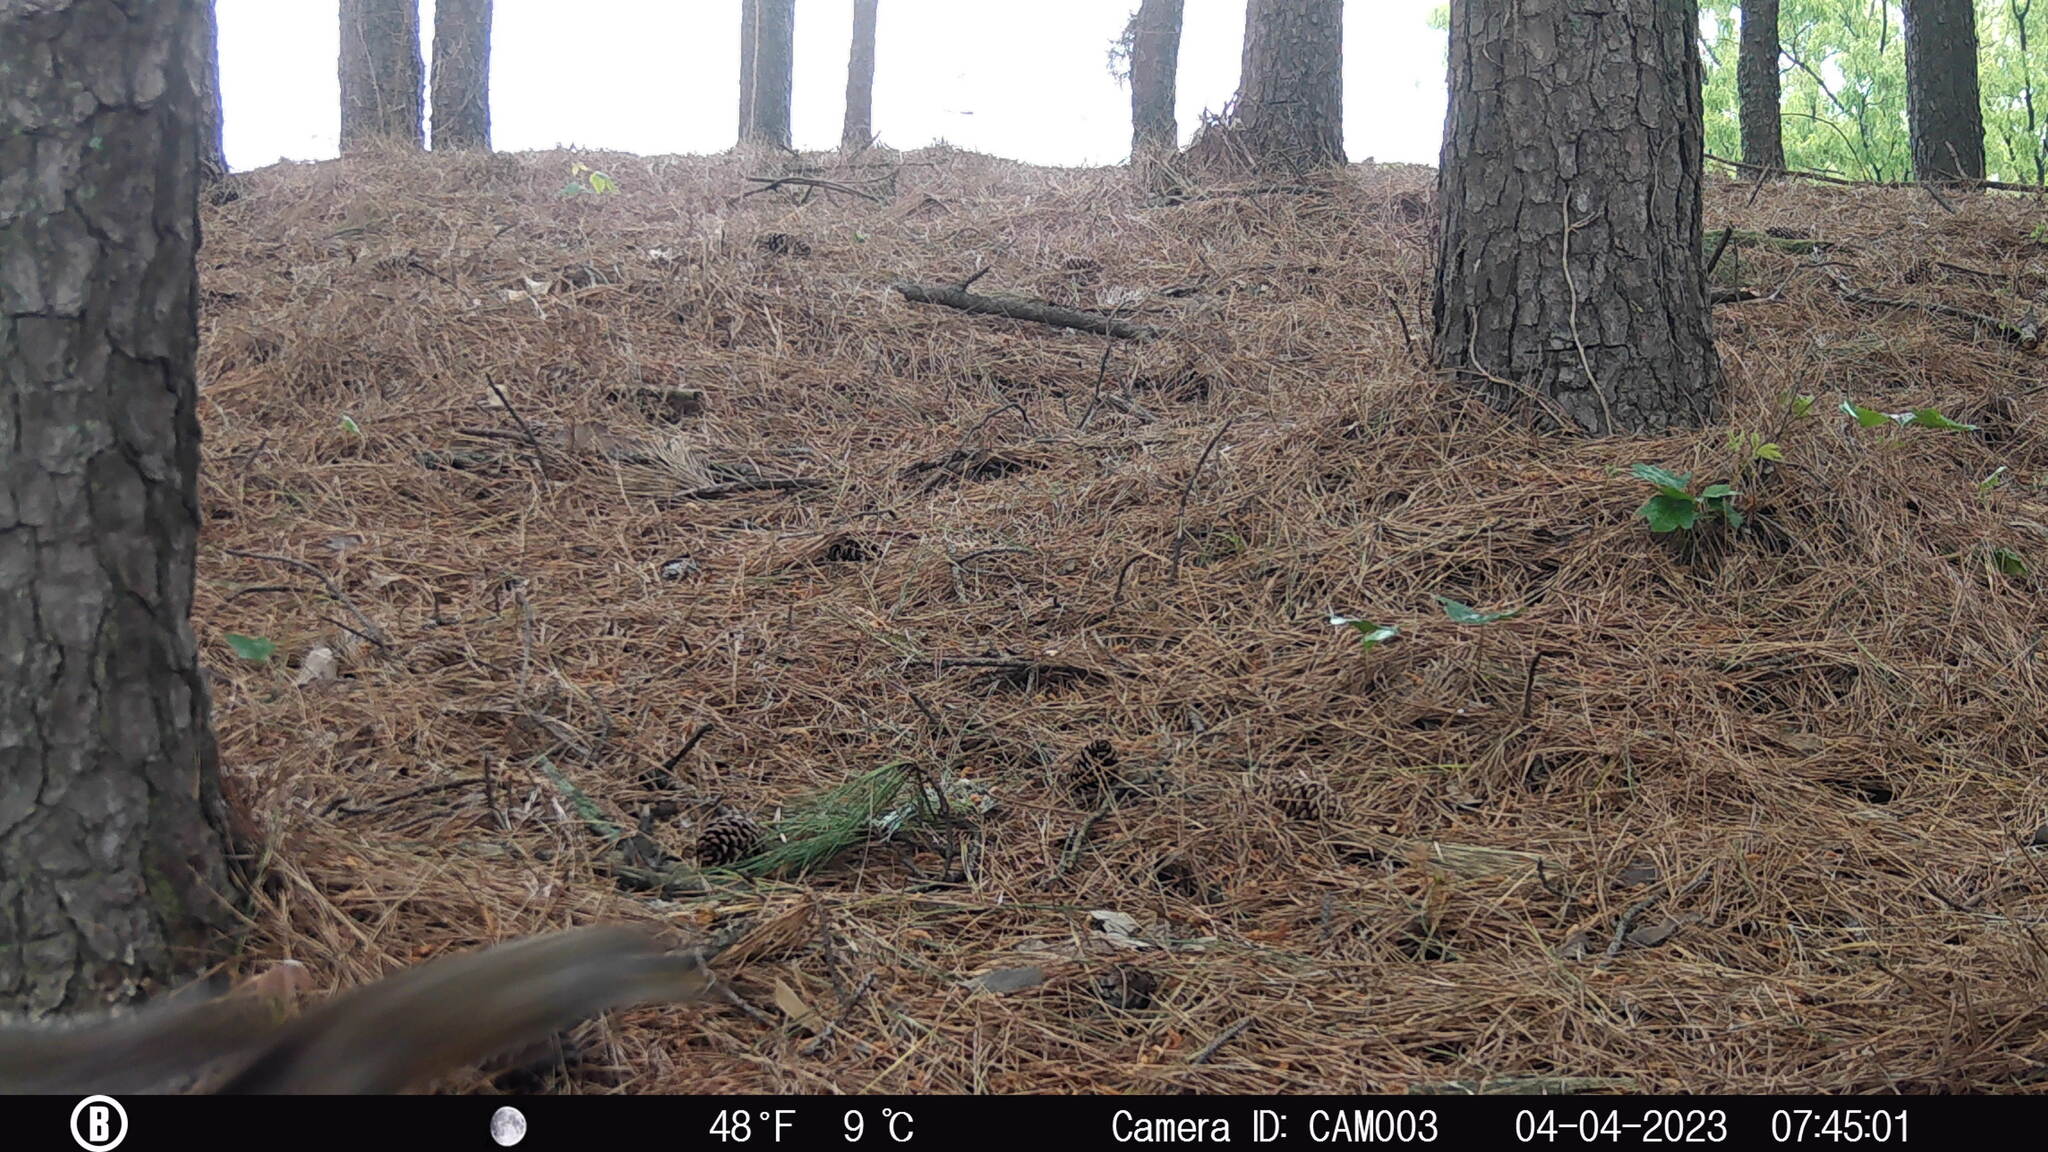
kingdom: Animalia
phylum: Chordata
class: Mammalia
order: Rodentia
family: Sciuridae
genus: Sciurus
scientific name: Sciurus carolinensis
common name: Eastern gray squirrel
